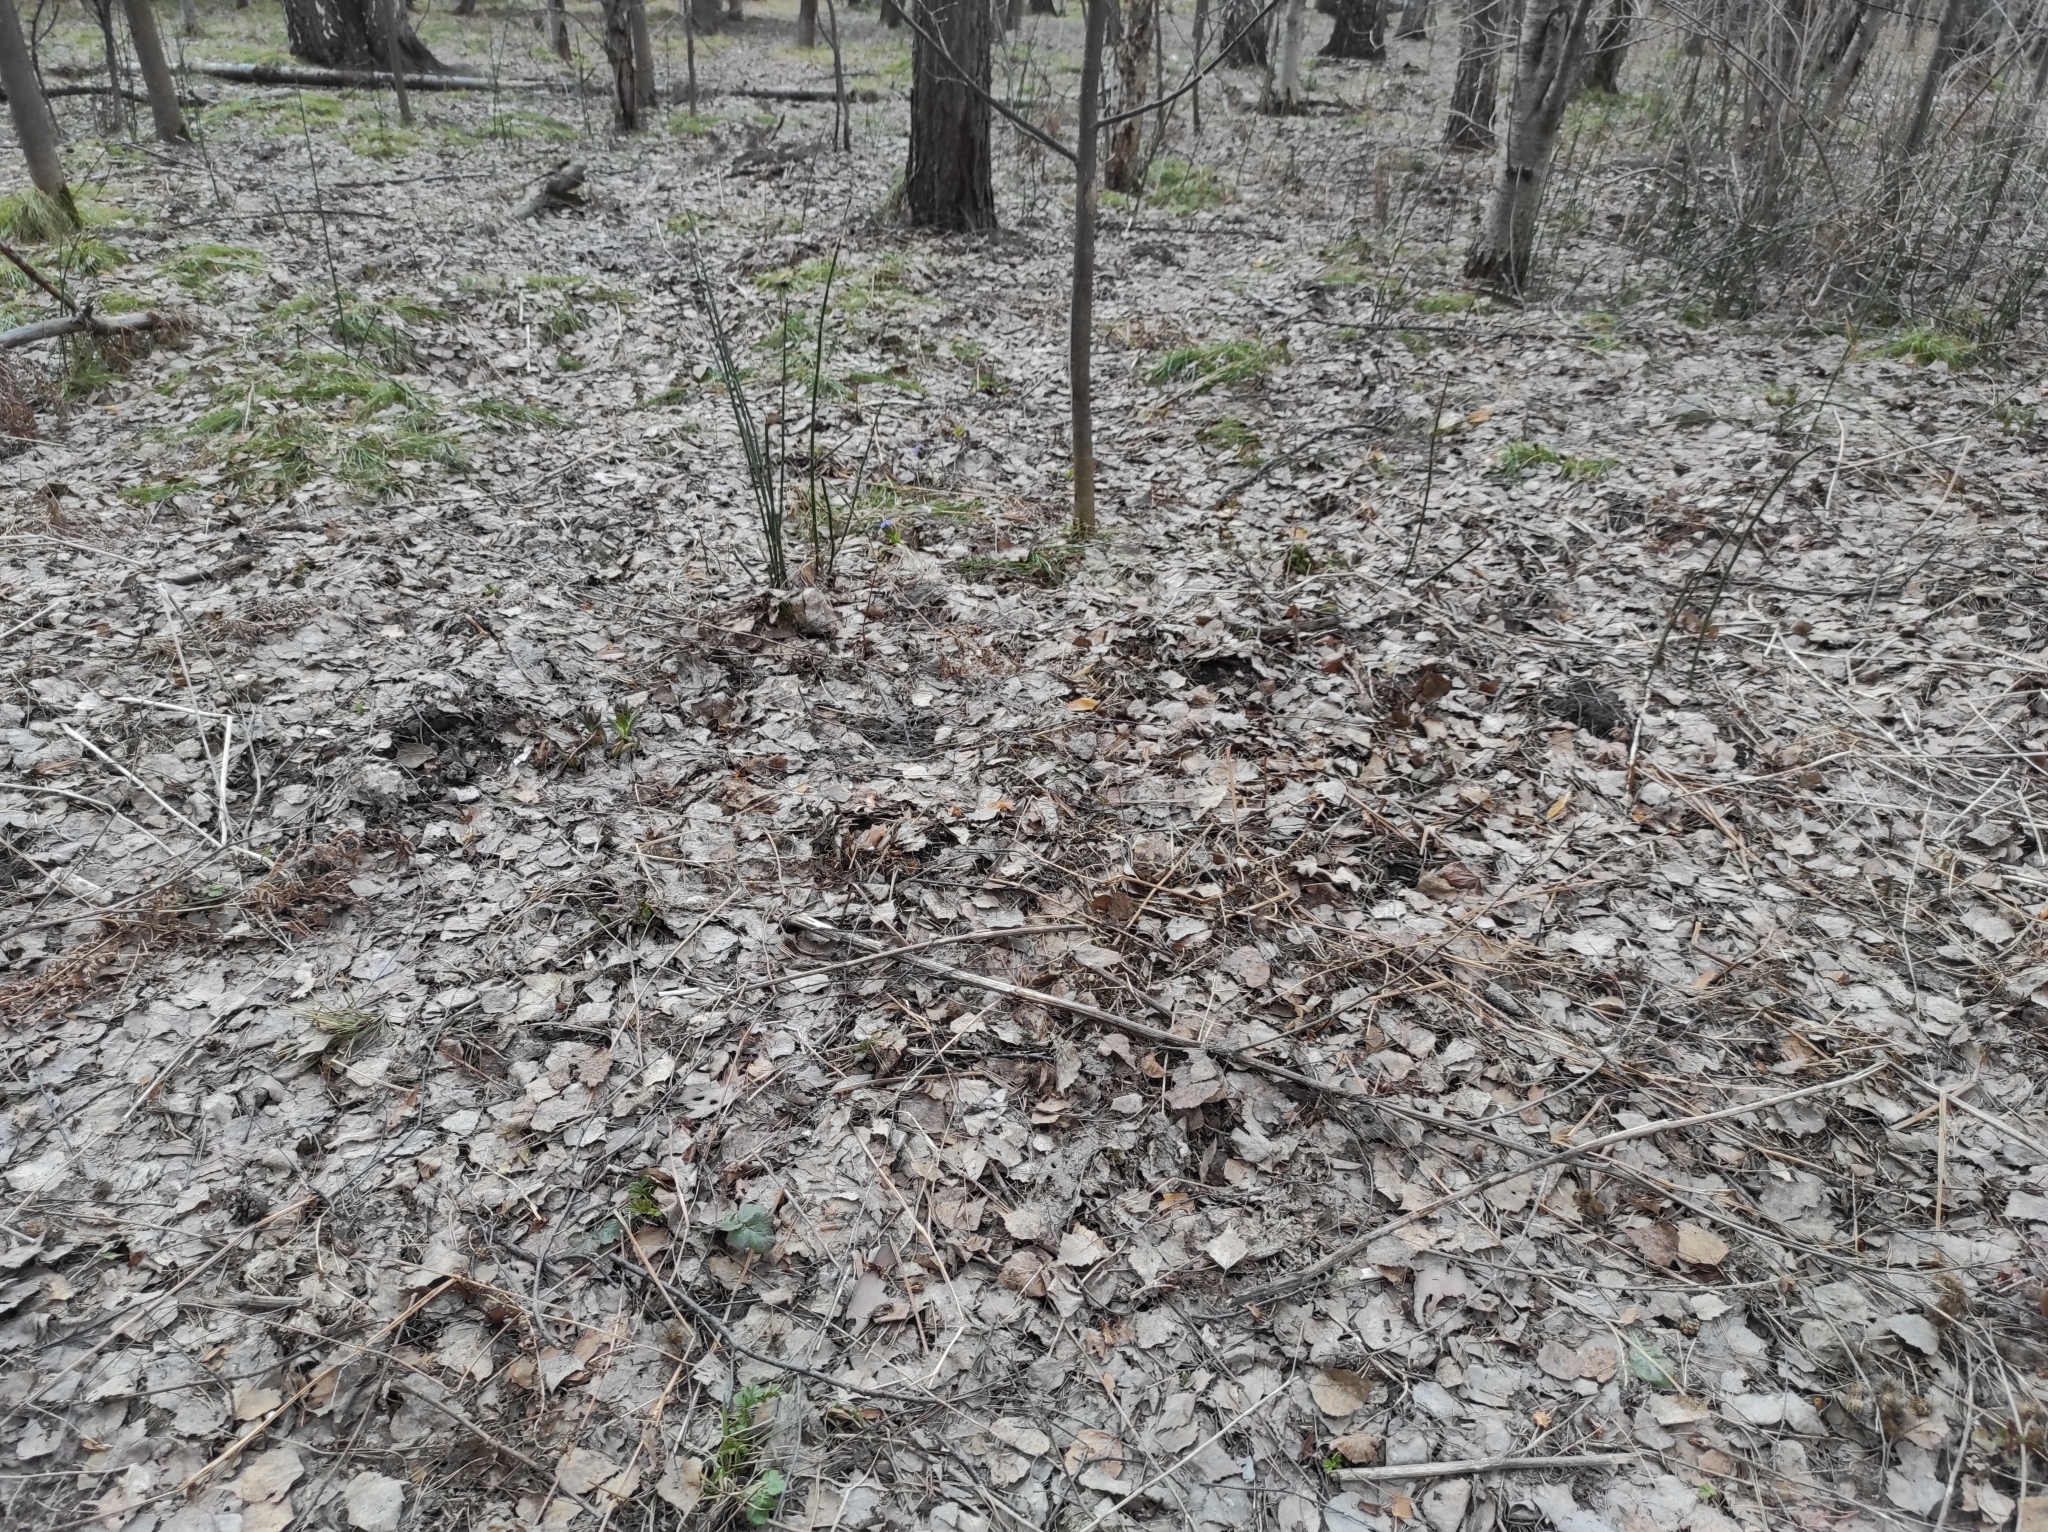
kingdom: Plantae
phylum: Tracheophyta
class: Magnoliopsida
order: Boraginales
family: Boraginaceae
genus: Pulmonaria
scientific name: Pulmonaria mollis
